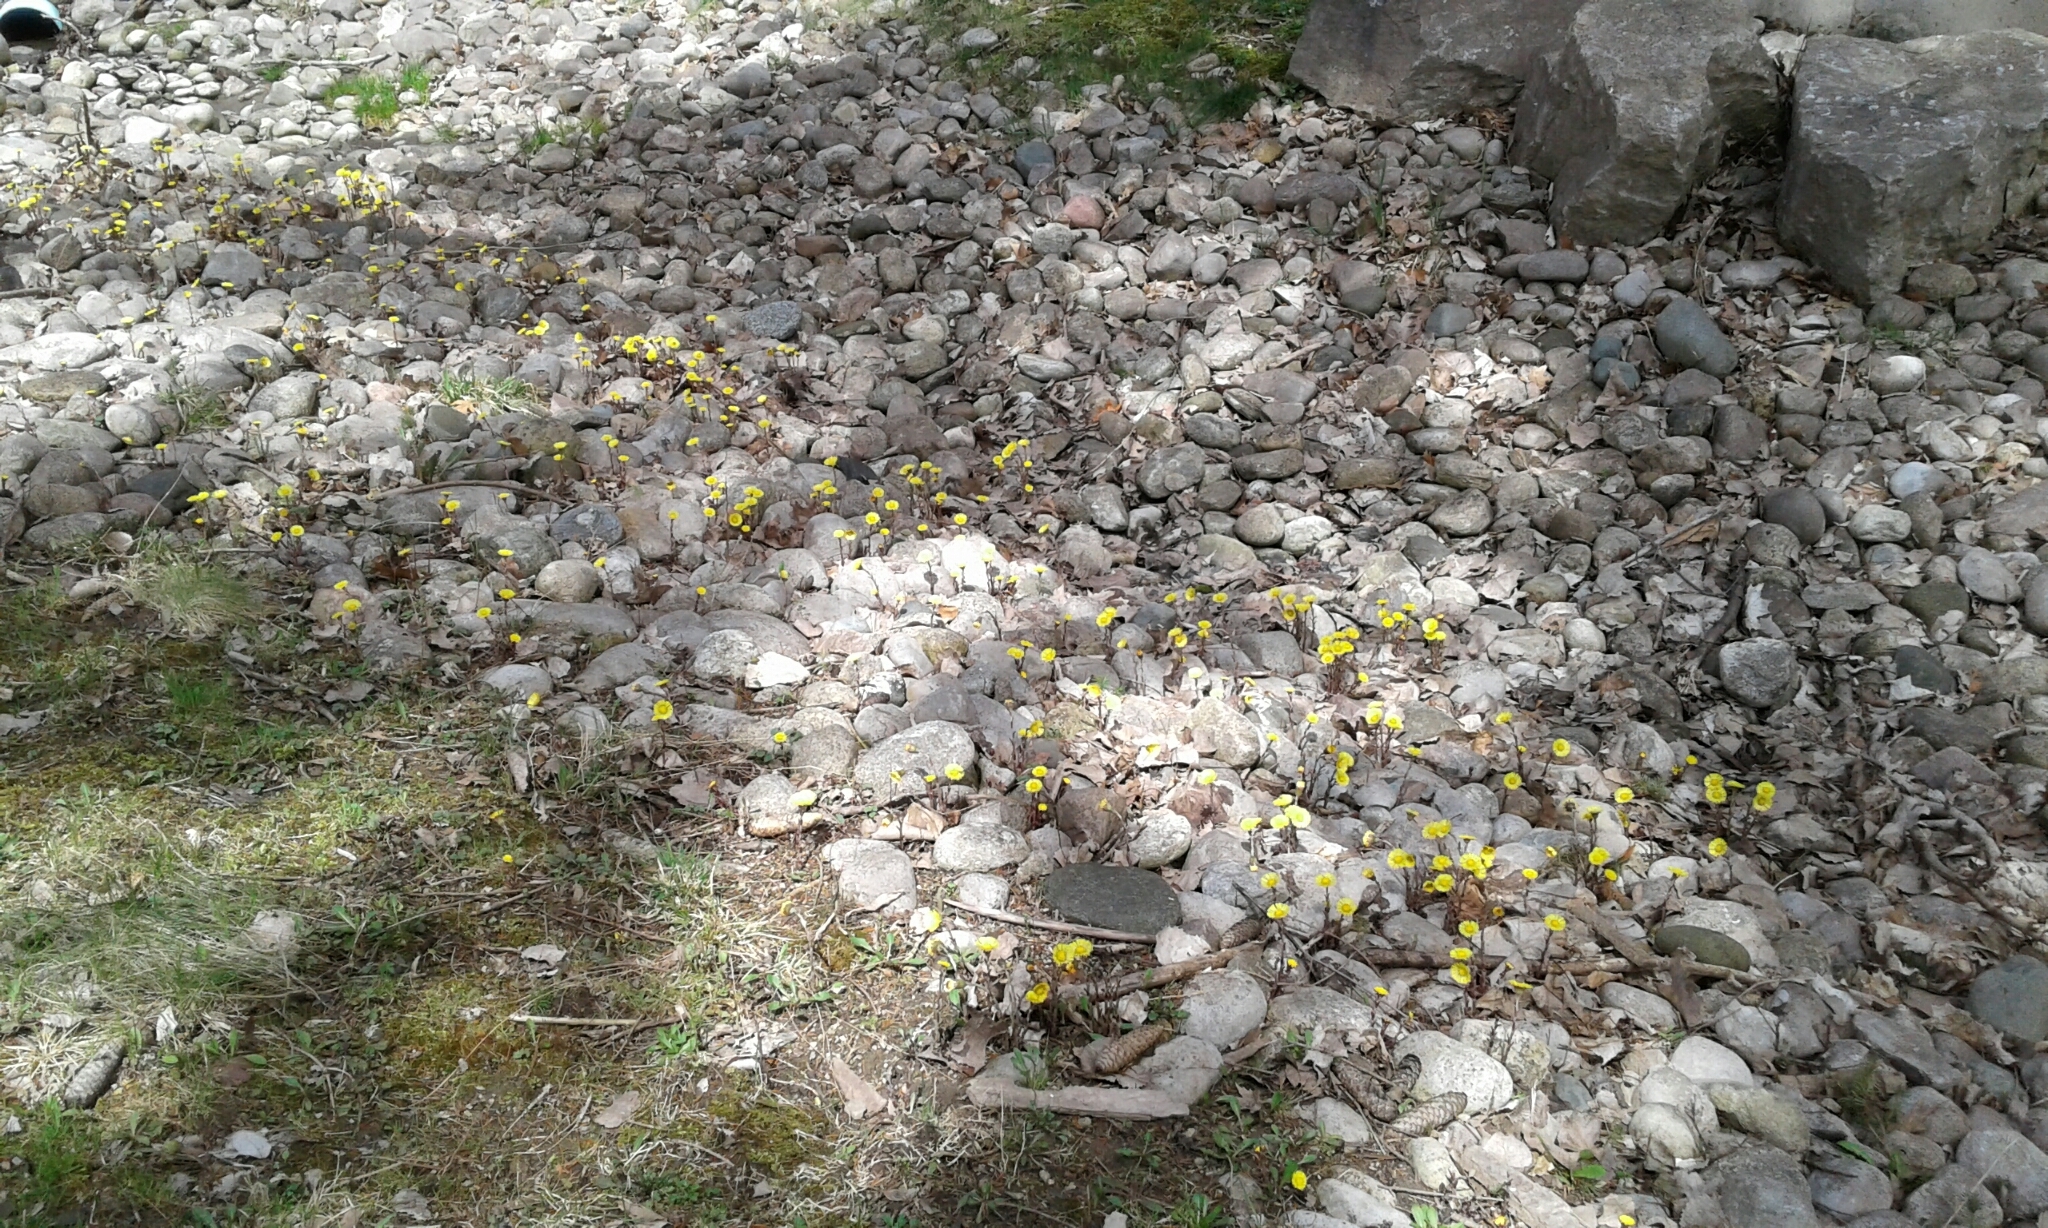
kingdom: Plantae
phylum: Tracheophyta
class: Magnoliopsida
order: Asterales
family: Asteraceae
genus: Tussilago
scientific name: Tussilago farfara
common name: Coltsfoot
